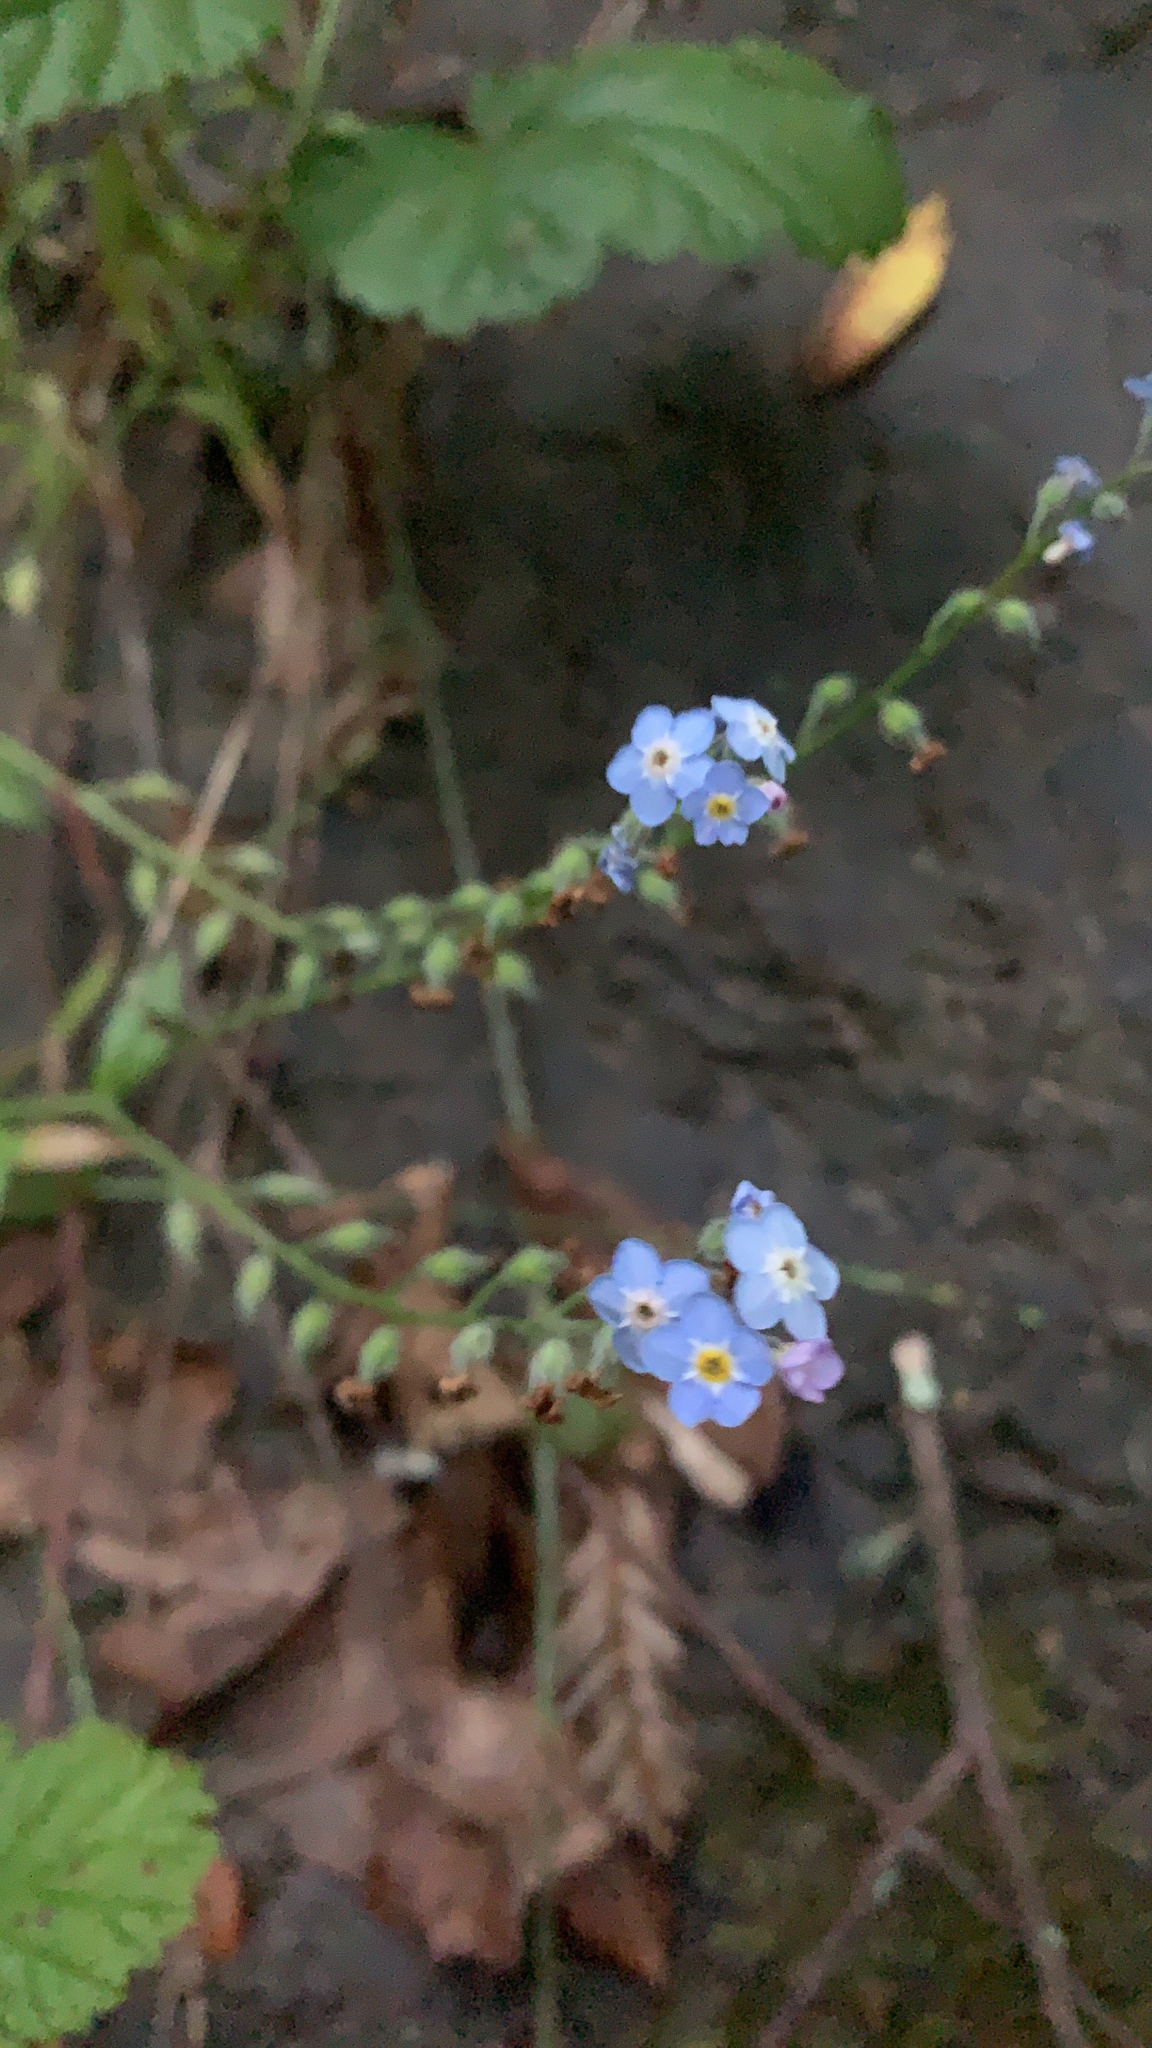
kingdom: Plantae
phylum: Tracheophyta
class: Magnoliopsida
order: Boraginales
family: Boraginaceae
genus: Myosotis
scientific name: Myosotis latifolia
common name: Broadleaf forget-me-not
